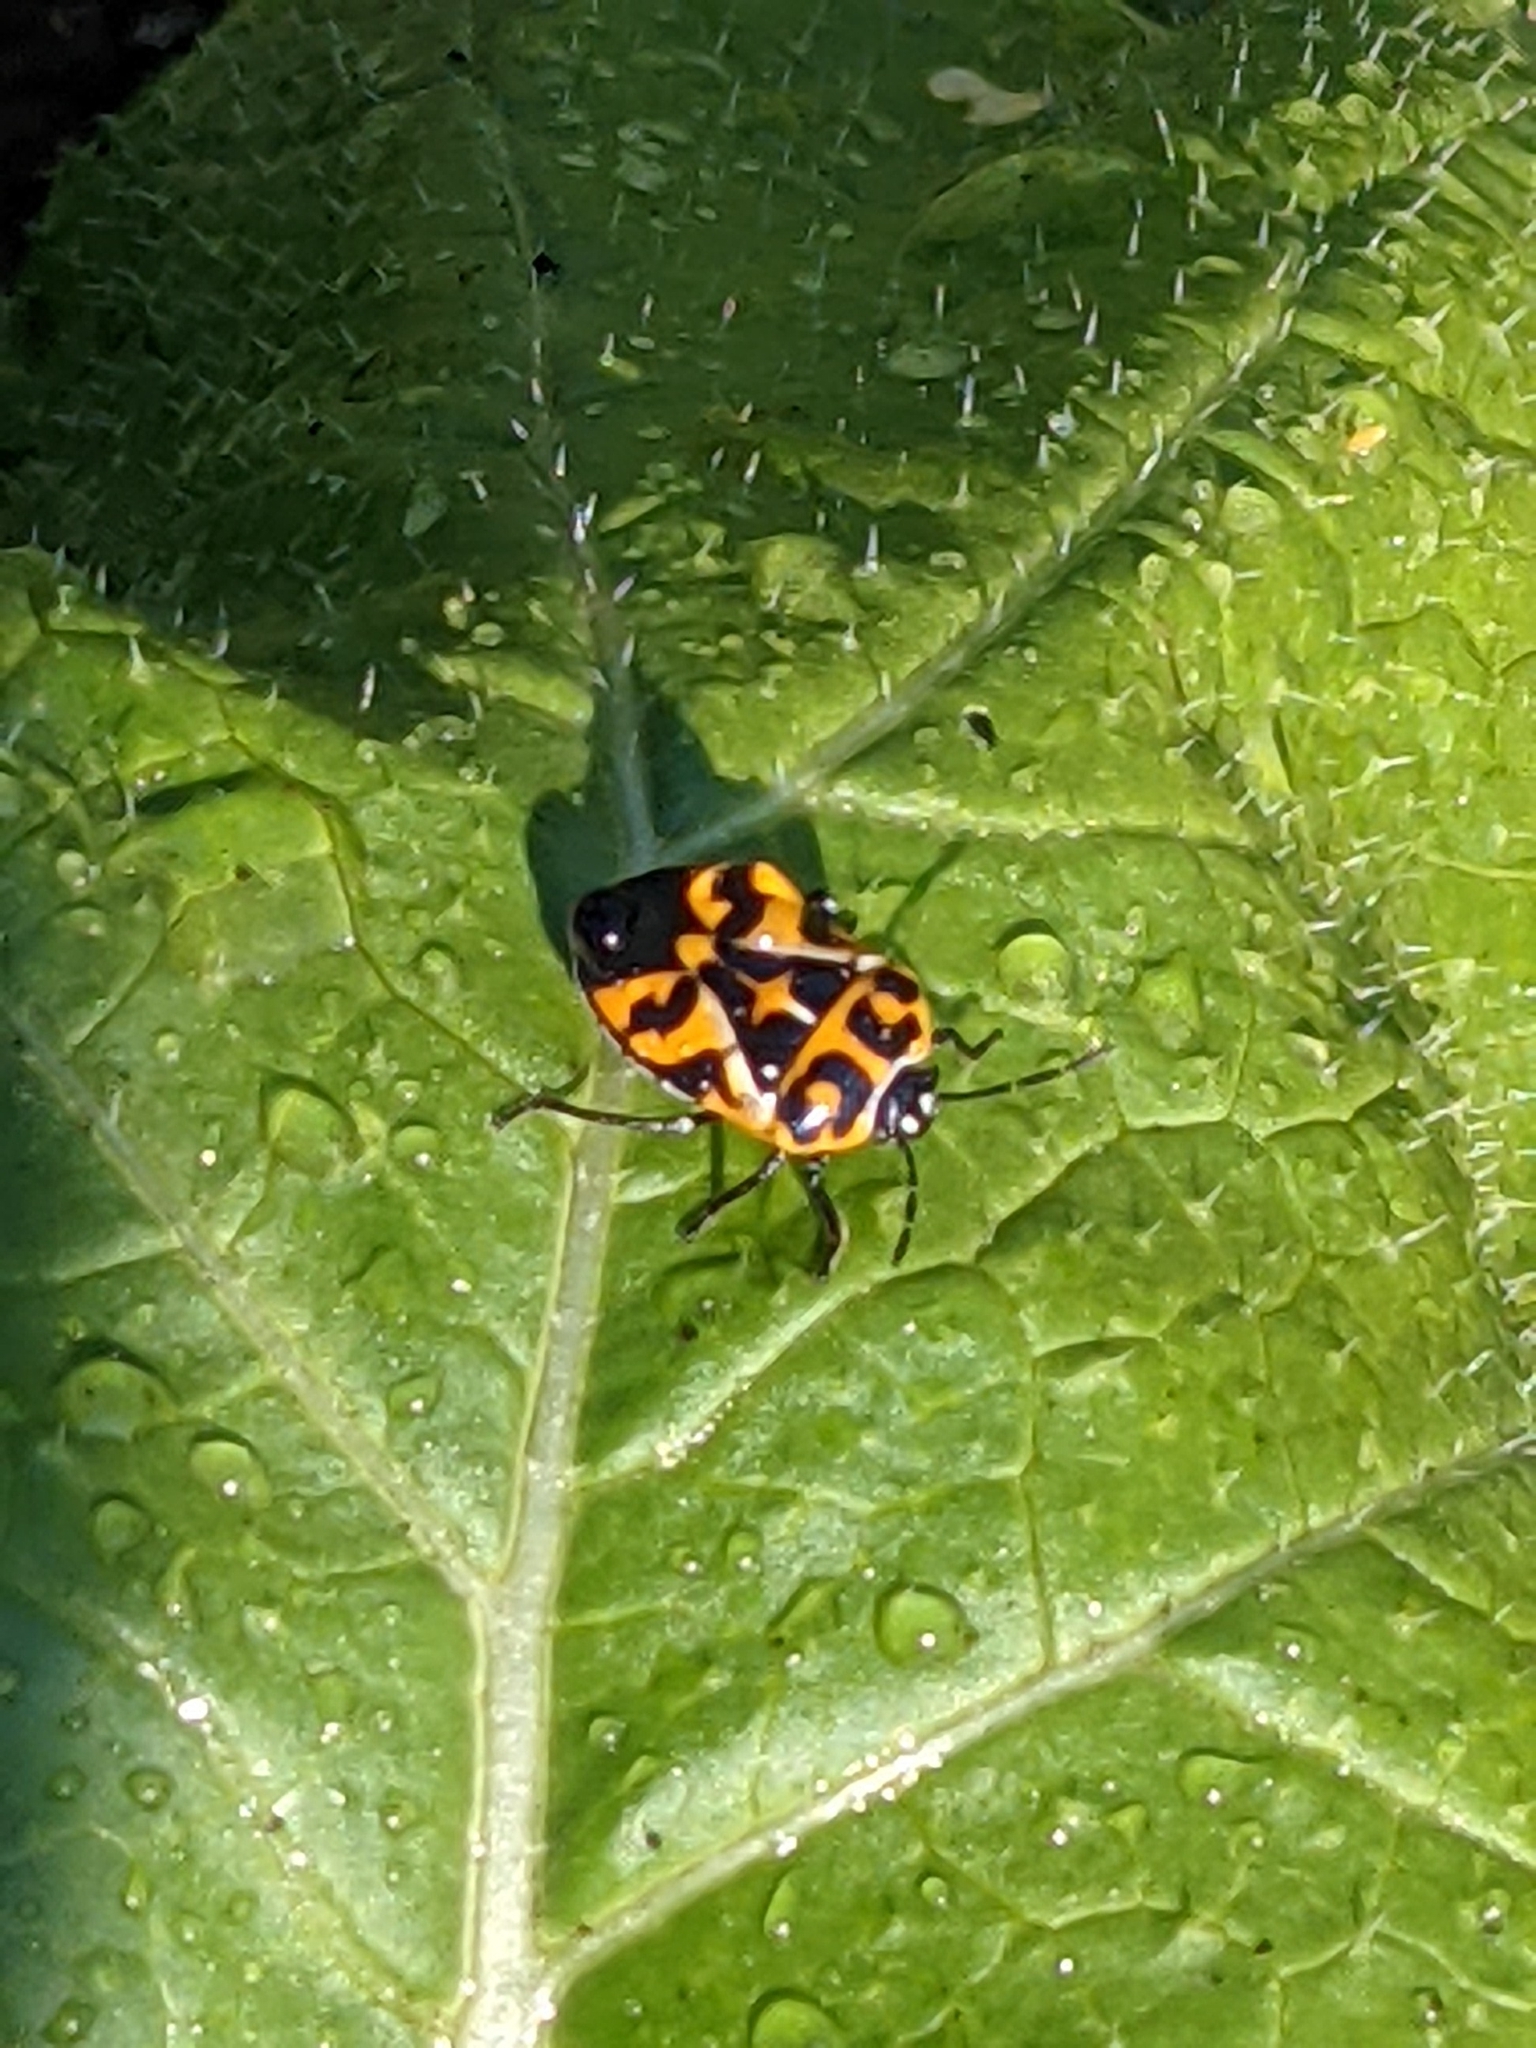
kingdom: Animalia
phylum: Arthropoda
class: Insecta
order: Hemiptera
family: Pentatomidae
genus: Murgantia
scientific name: Murgantia histrionica
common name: Harlequin bug
